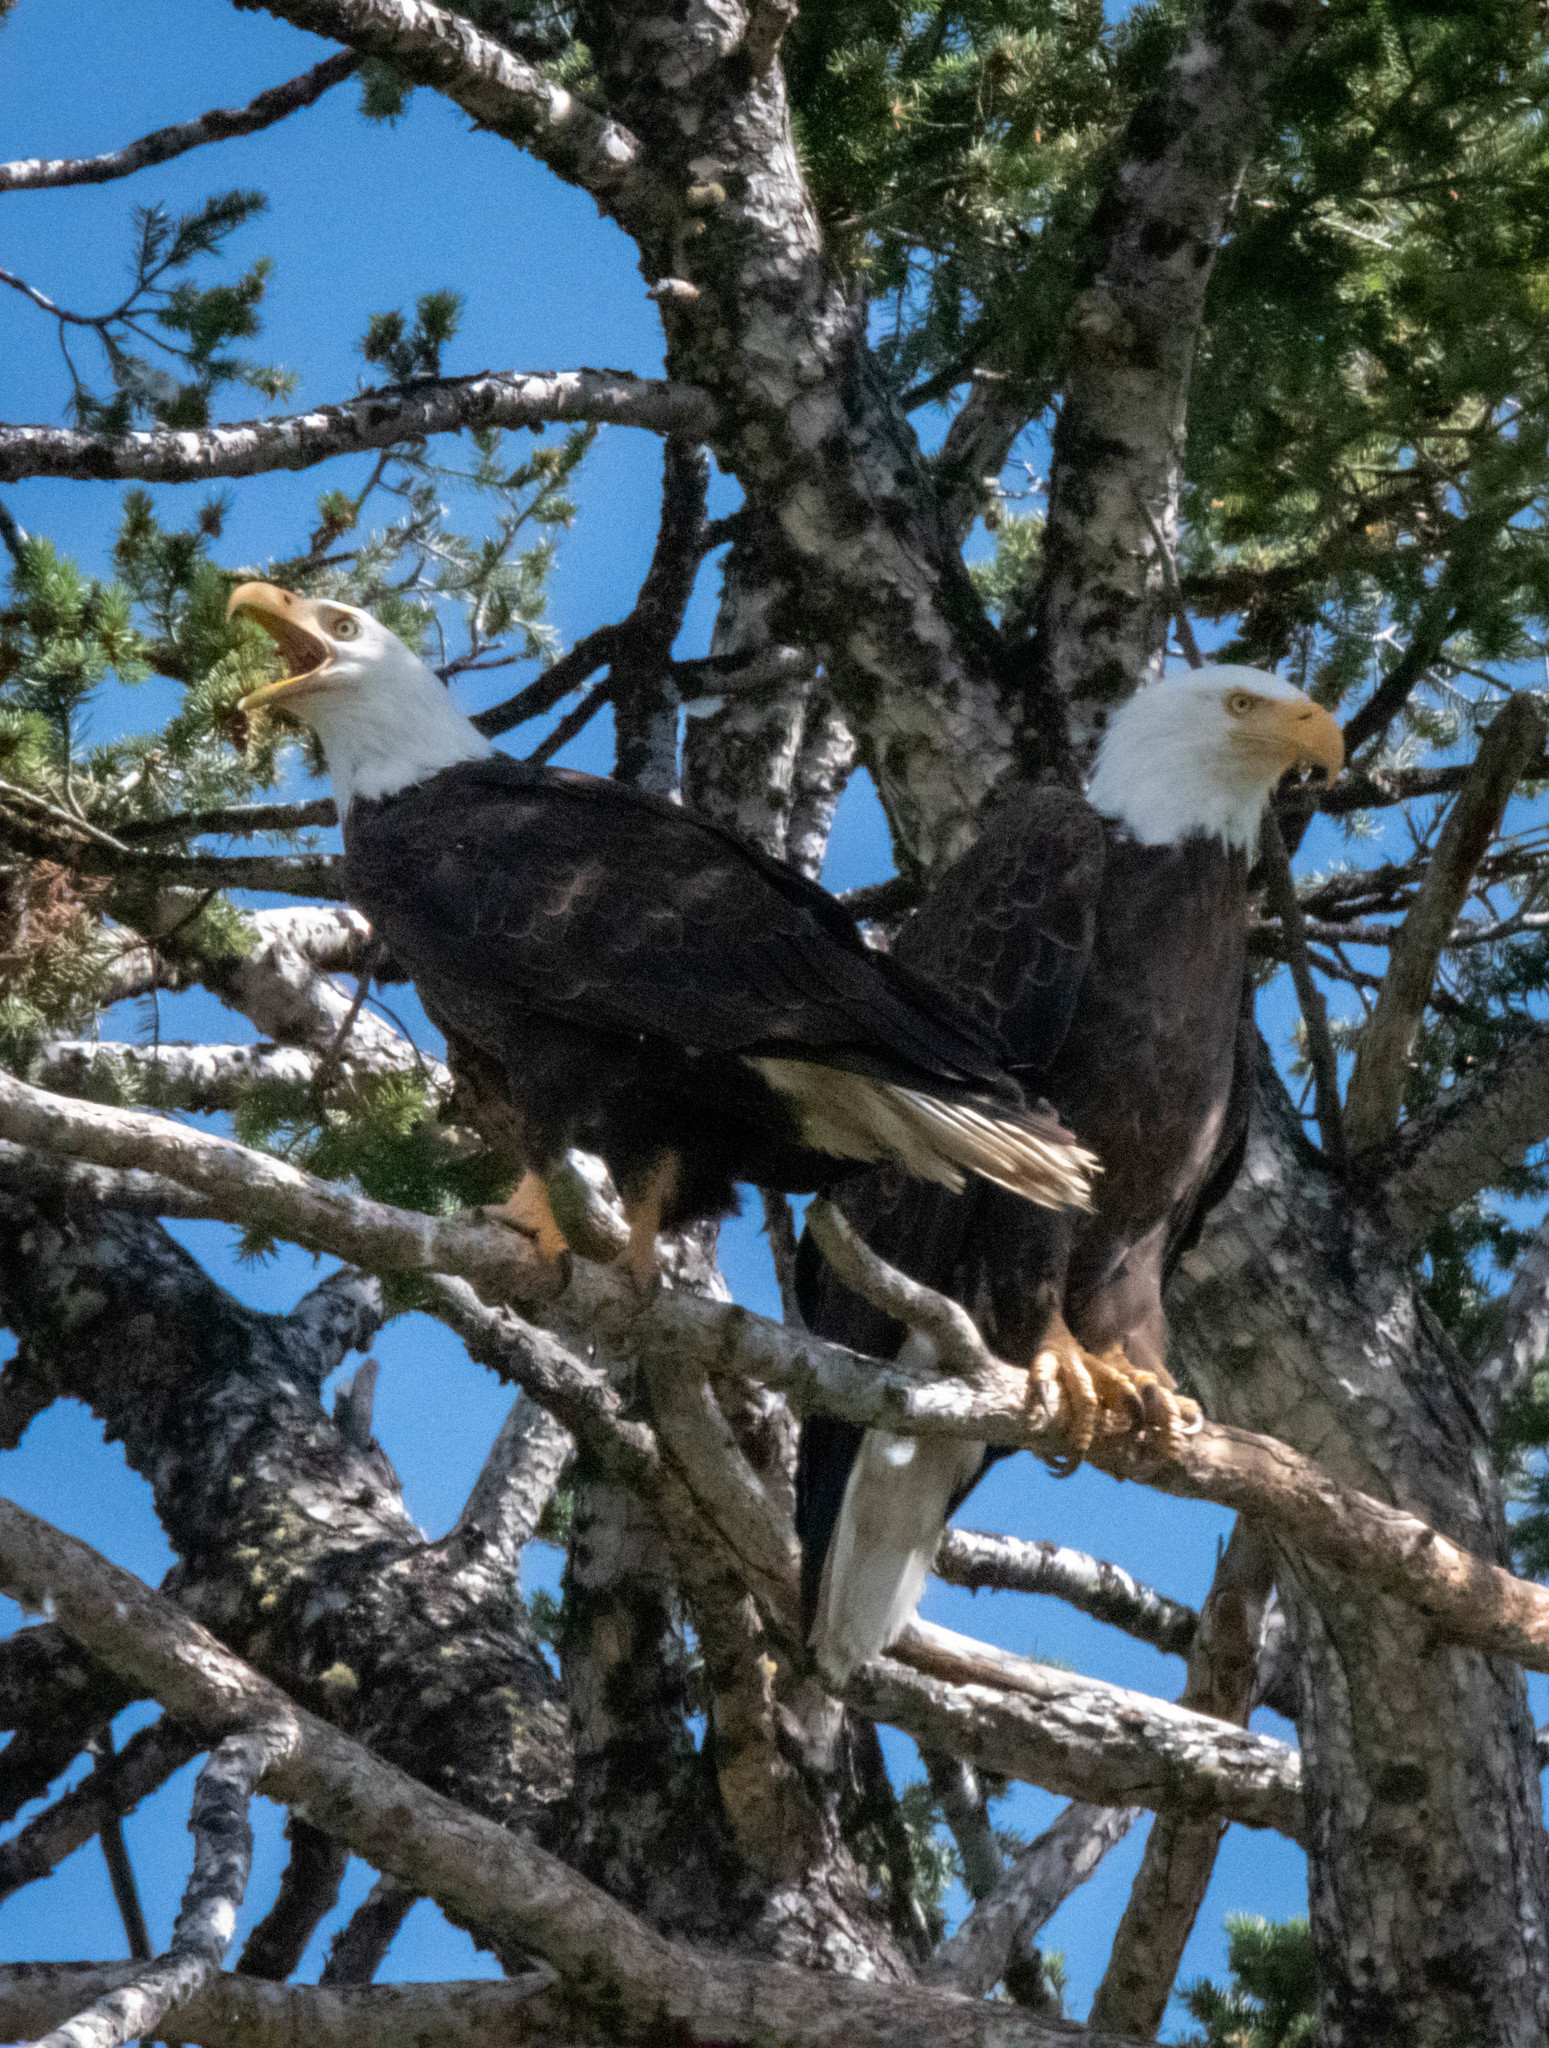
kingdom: Animalia
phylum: Chordata
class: Aves
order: Accipitriformes
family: Accipitridae
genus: Haliaeetus
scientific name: Haliaeetus leucocephalus
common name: Bald eagle
